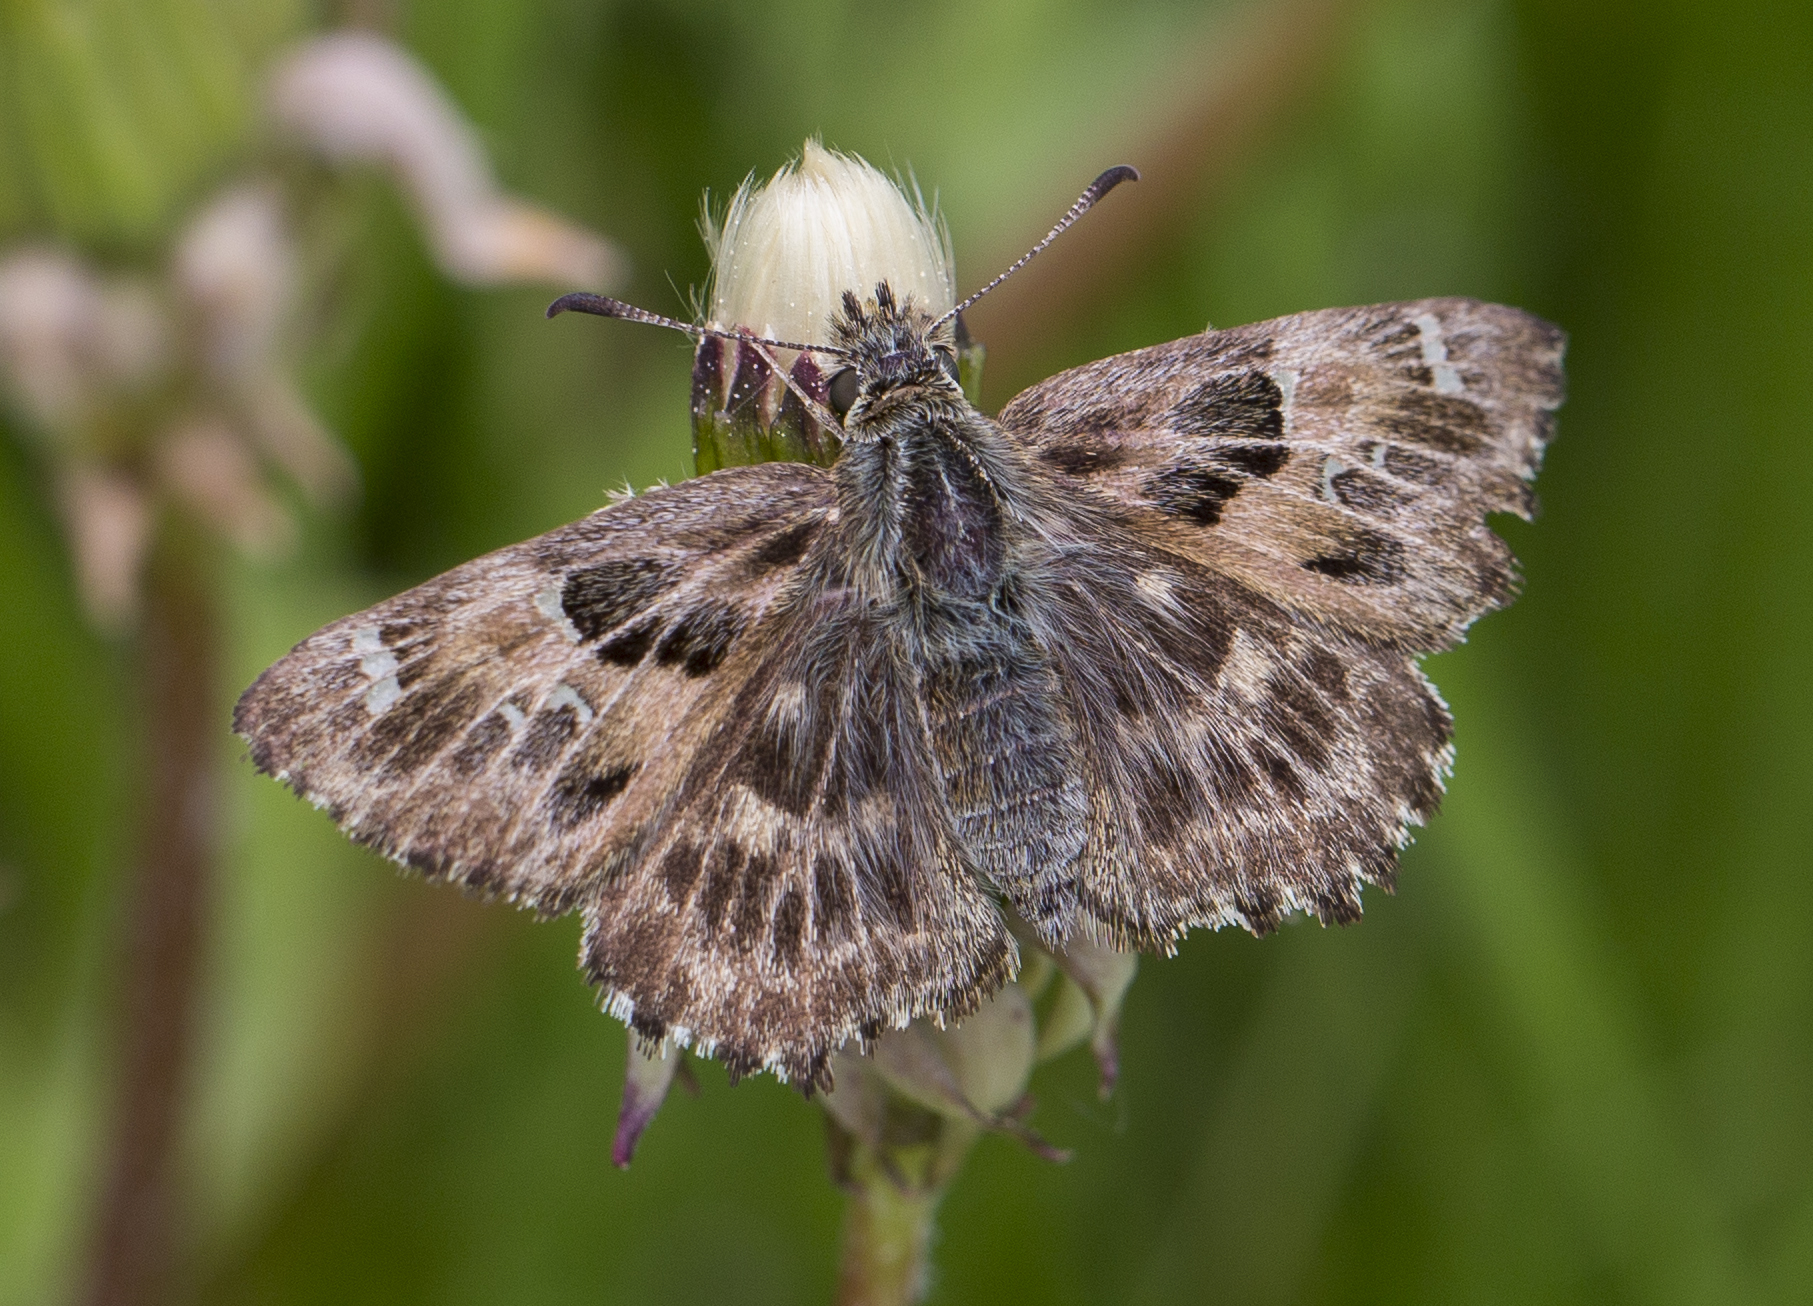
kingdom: Animalia
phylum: Arthropoda
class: Insecta
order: Lepidoptera
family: Hesperiidae
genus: Carcharodus
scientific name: Carcharodus alceae
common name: Mallow skipper
